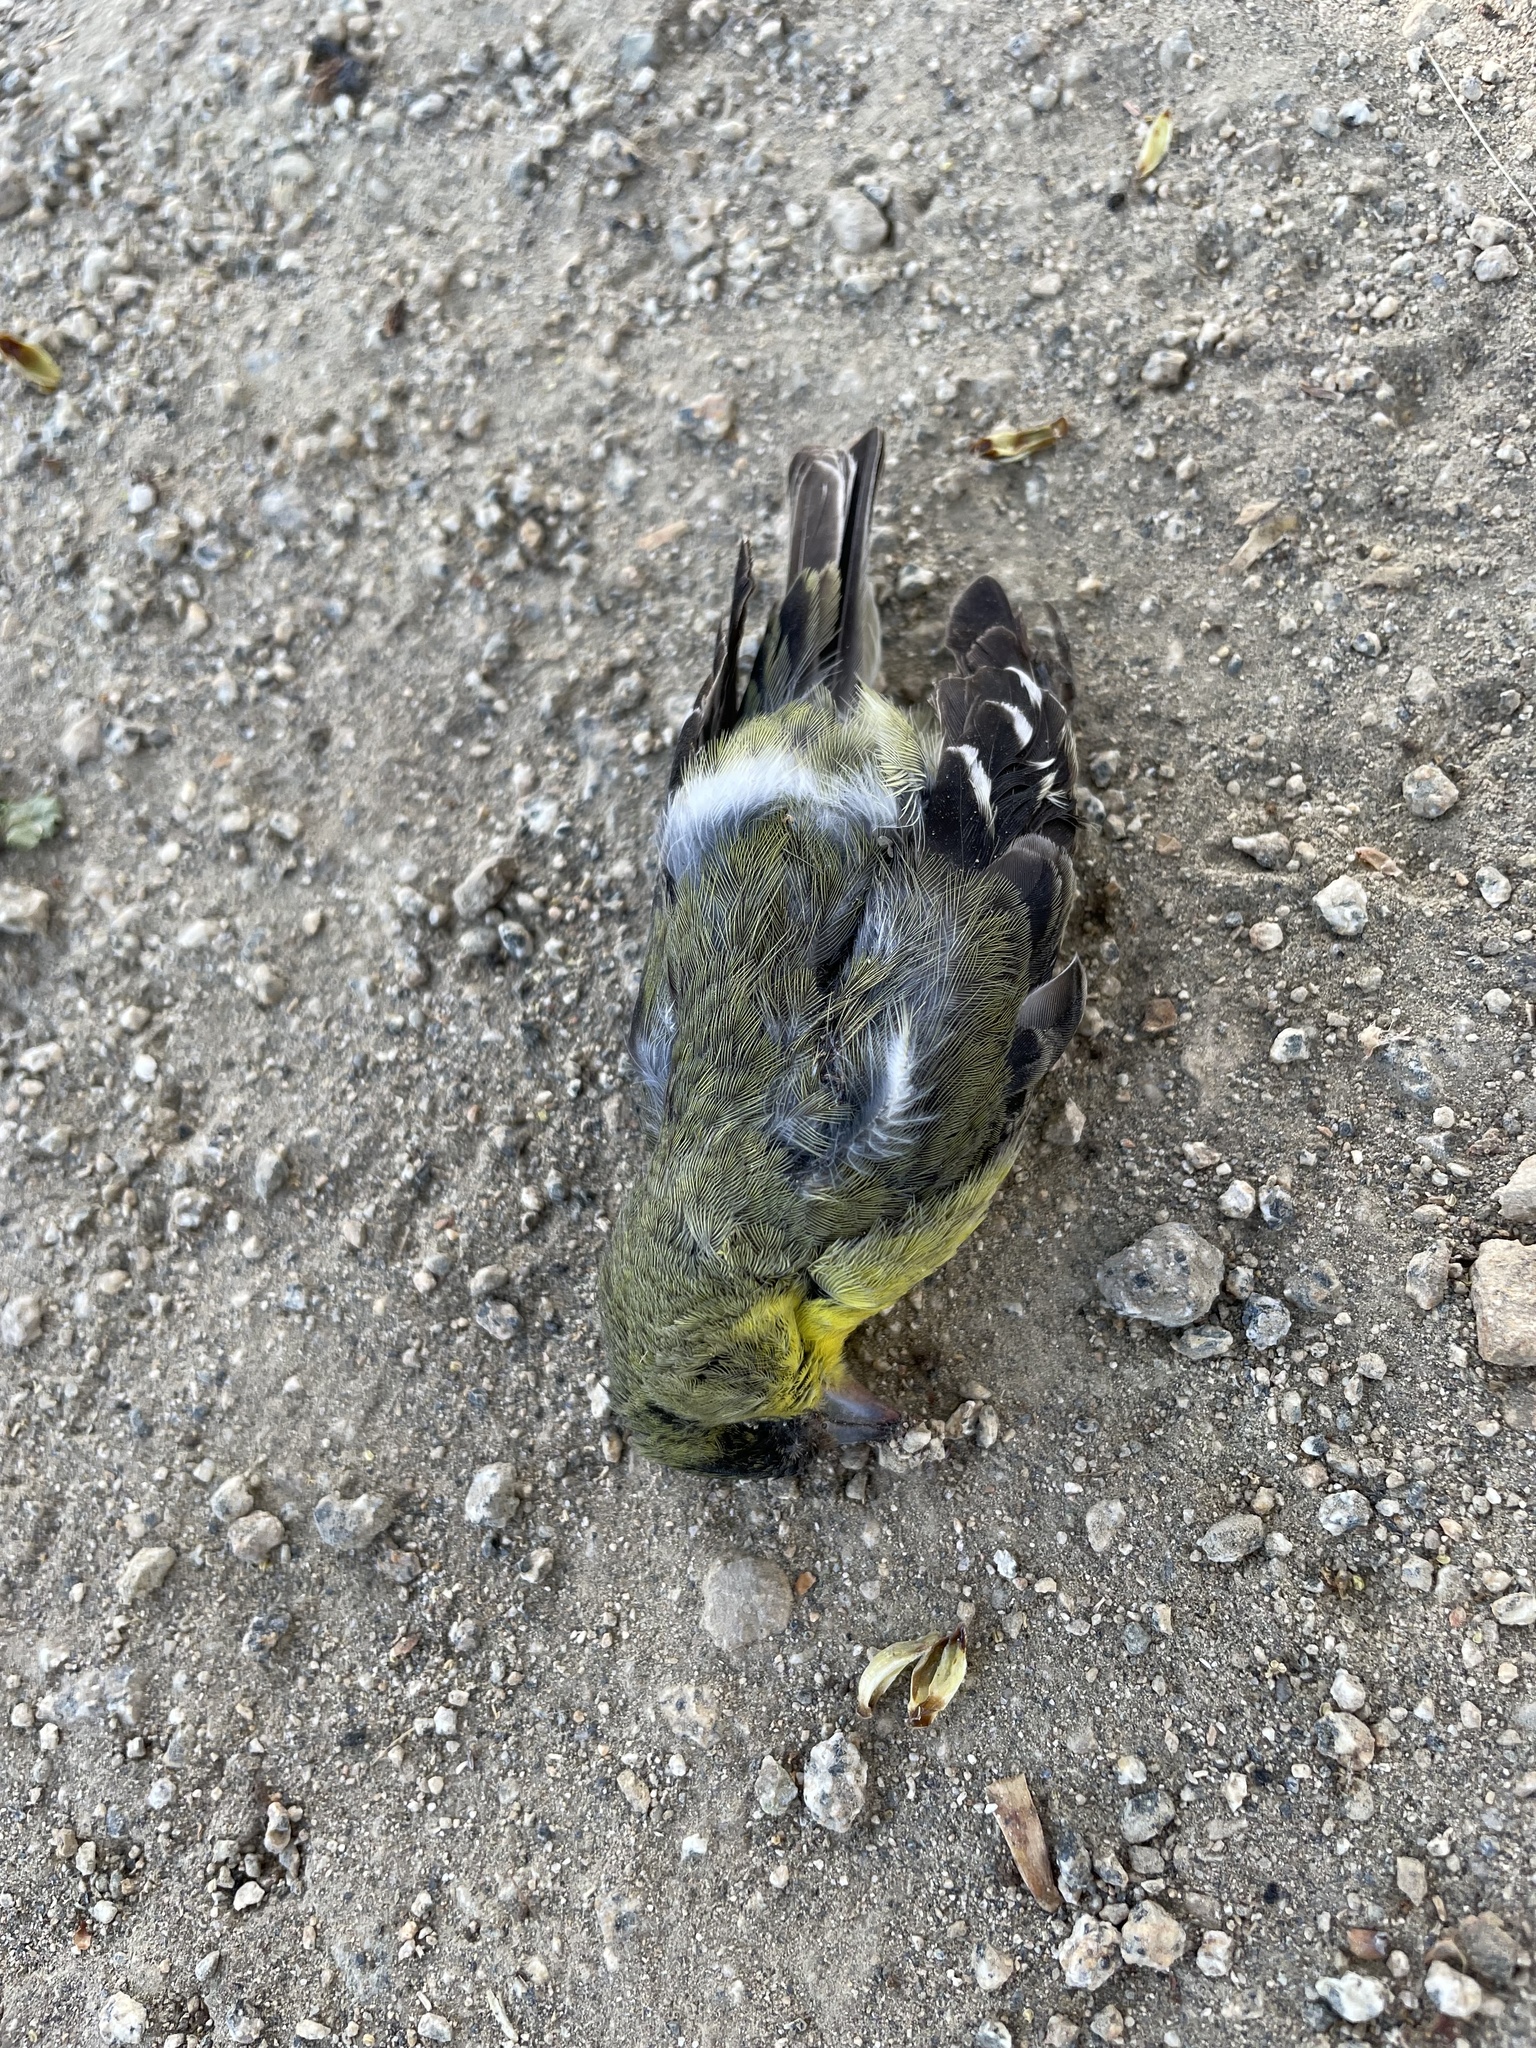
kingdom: Animalia
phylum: Chordata
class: Aves
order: Passeriformes
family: Fringillidae
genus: Spinus
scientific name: Spinus psaltria
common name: Lesser goldfinch
